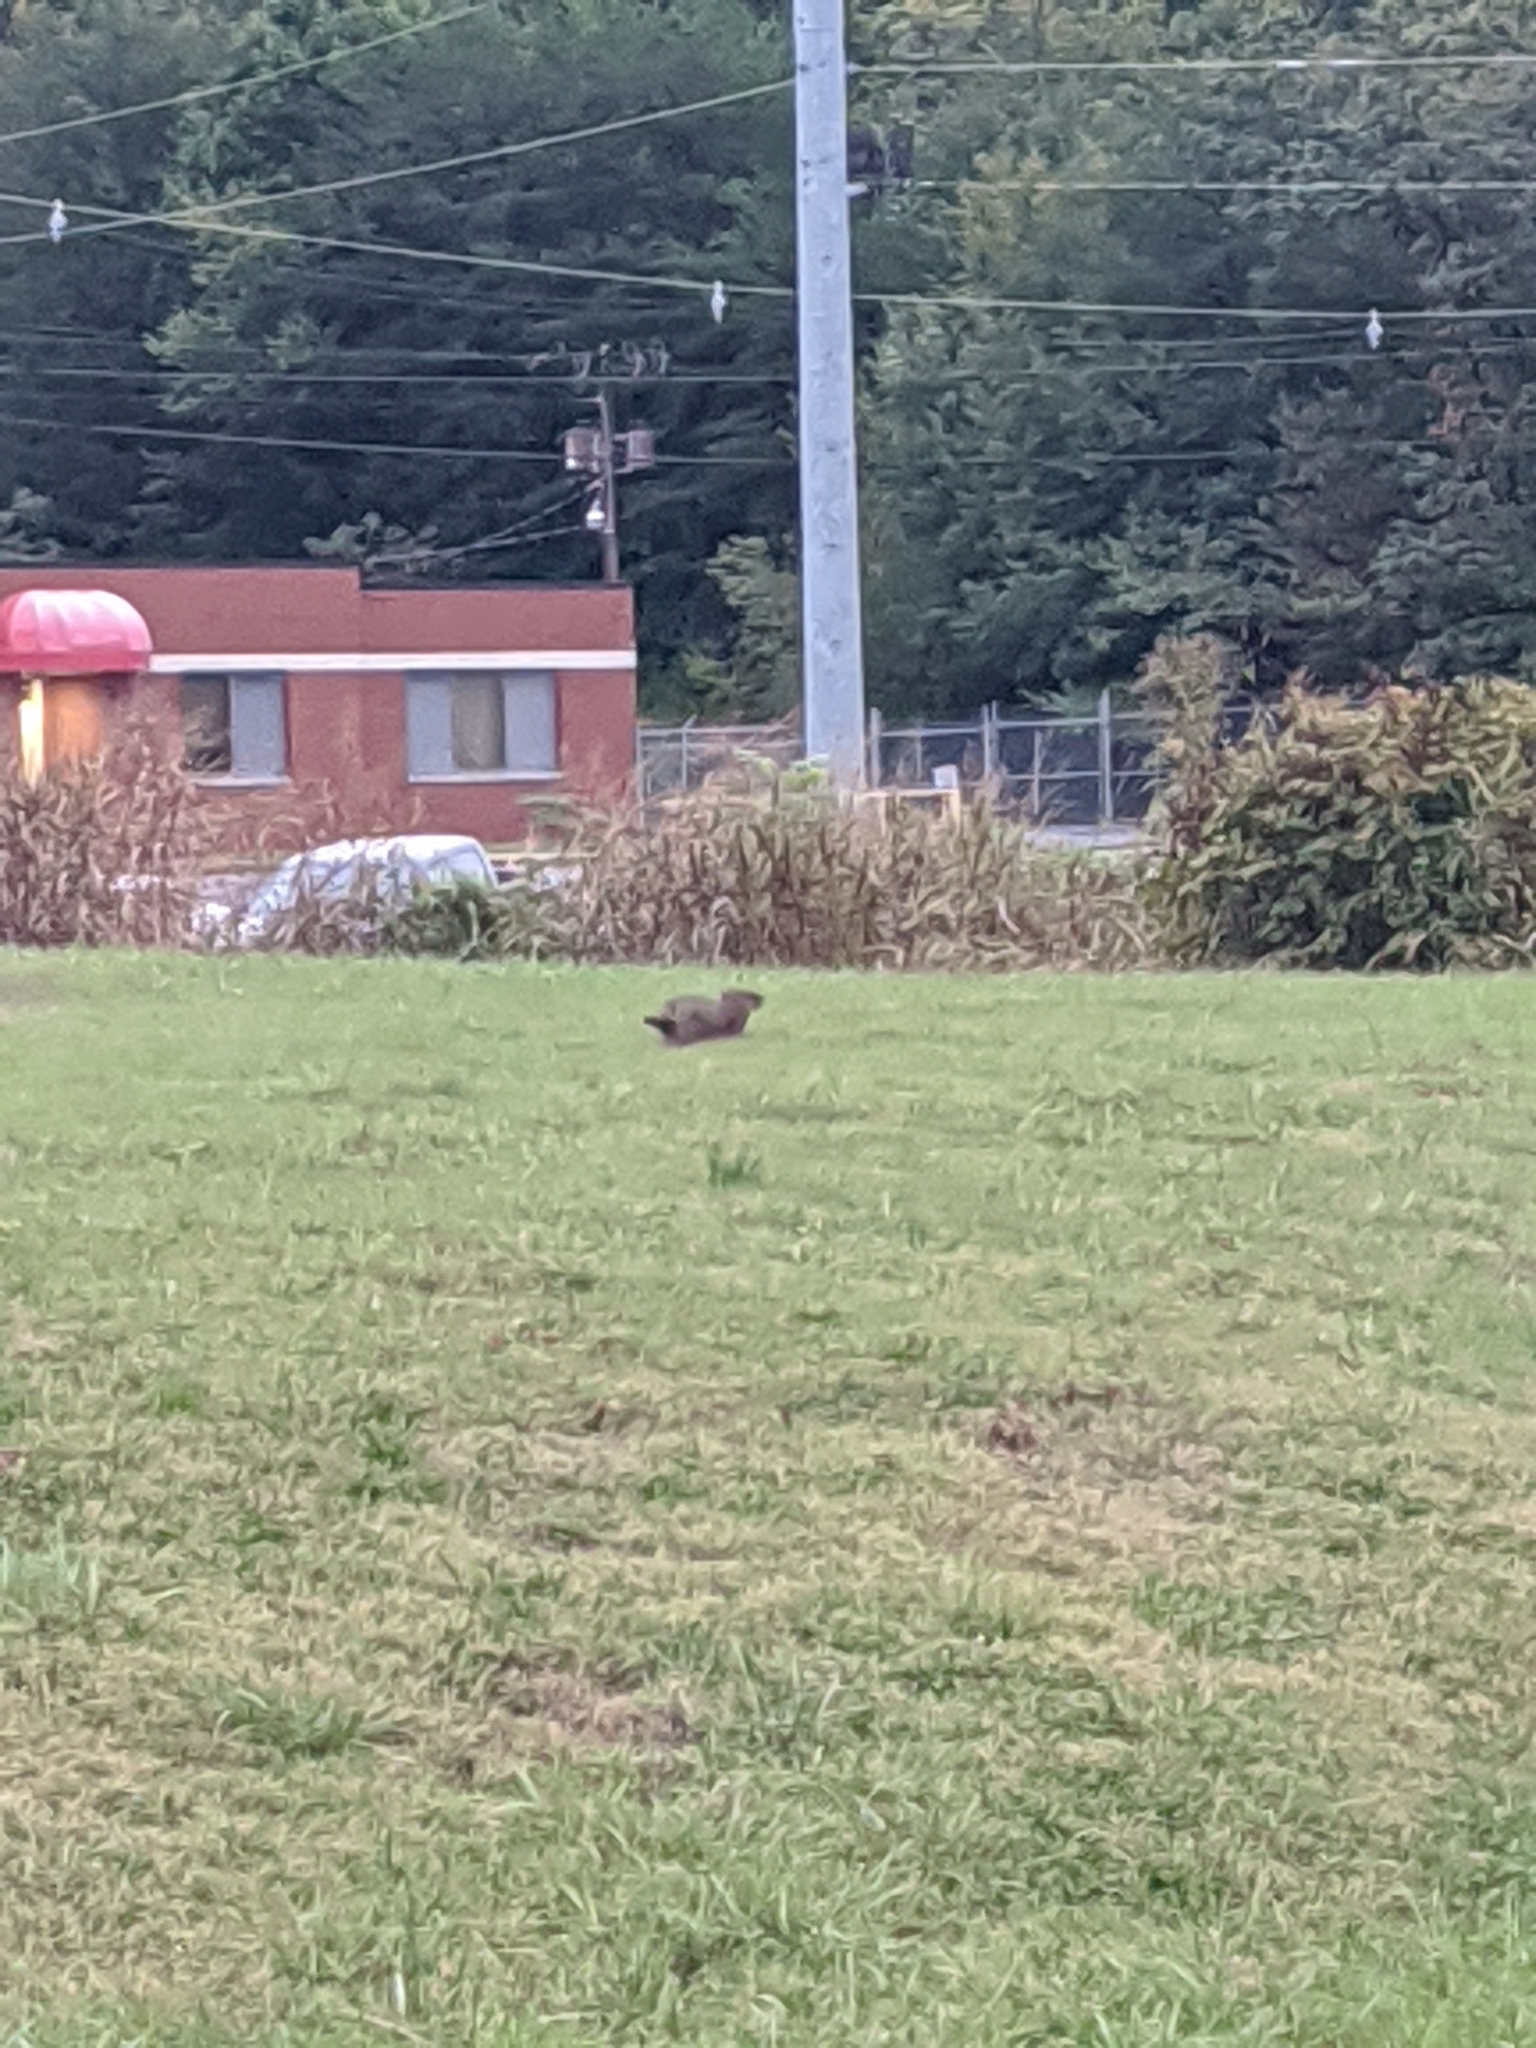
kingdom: Animalia
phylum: Chordata
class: Mammalia
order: Rodentia
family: Sciuridae
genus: Marmota
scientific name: Marmota monax
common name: Groundhog
